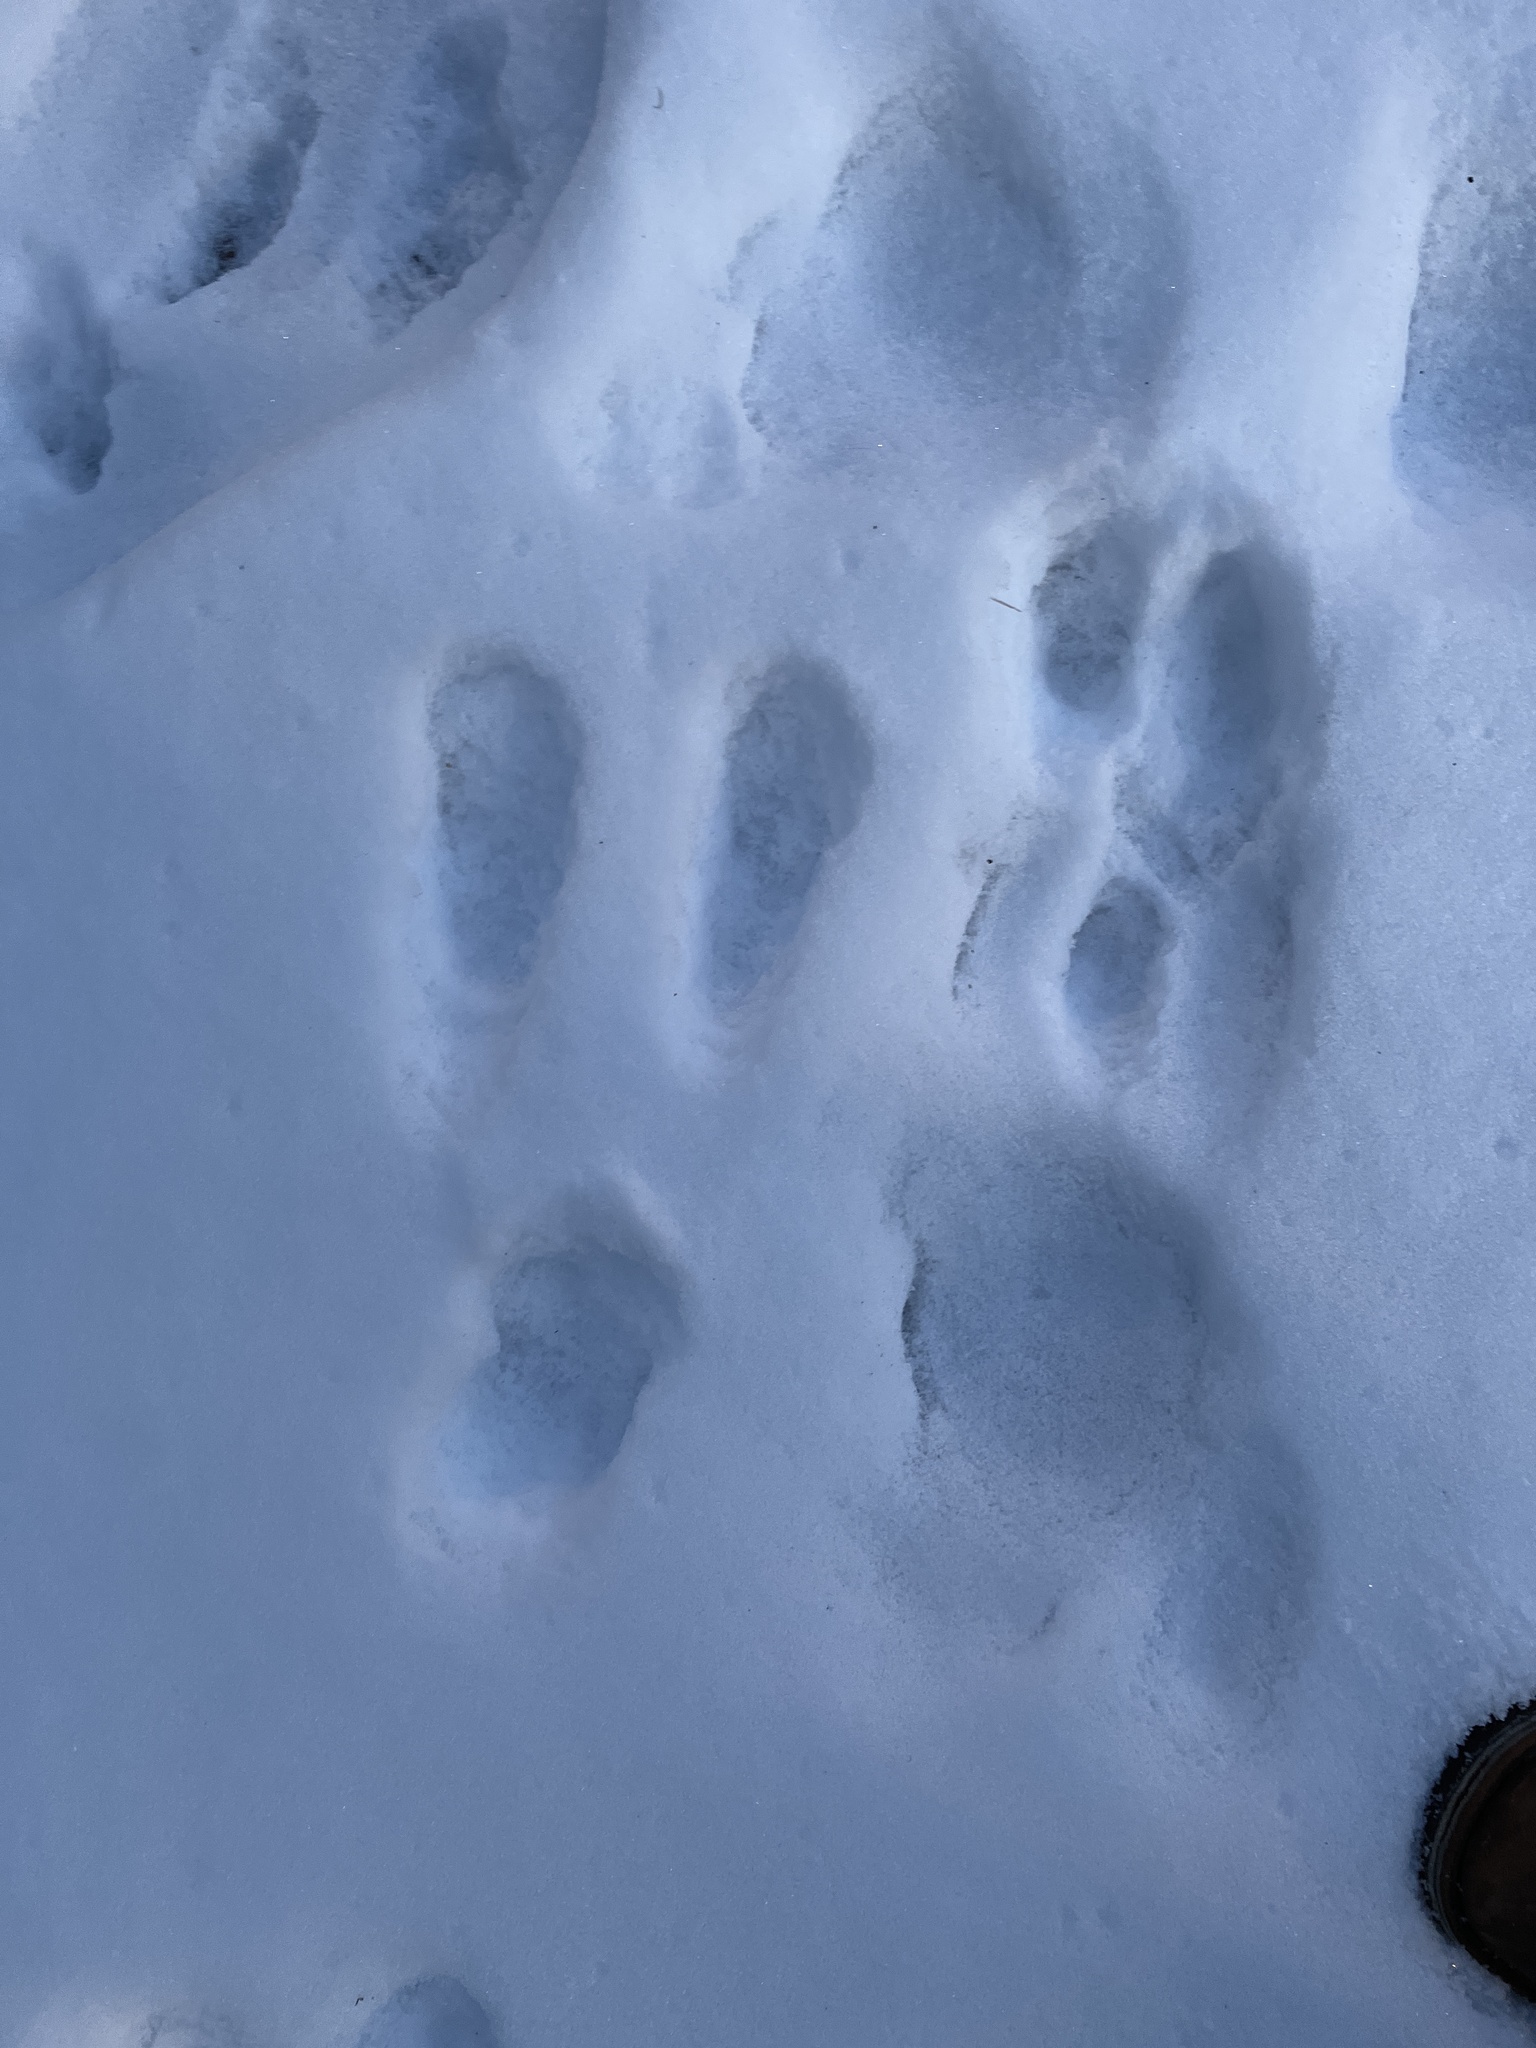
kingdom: Animalia
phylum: Chordata
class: Mammalia
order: Lagomorpha
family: Leporidae
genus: Sylvilagus
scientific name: Sylvilagus floridanus
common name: Eastern cottontail
